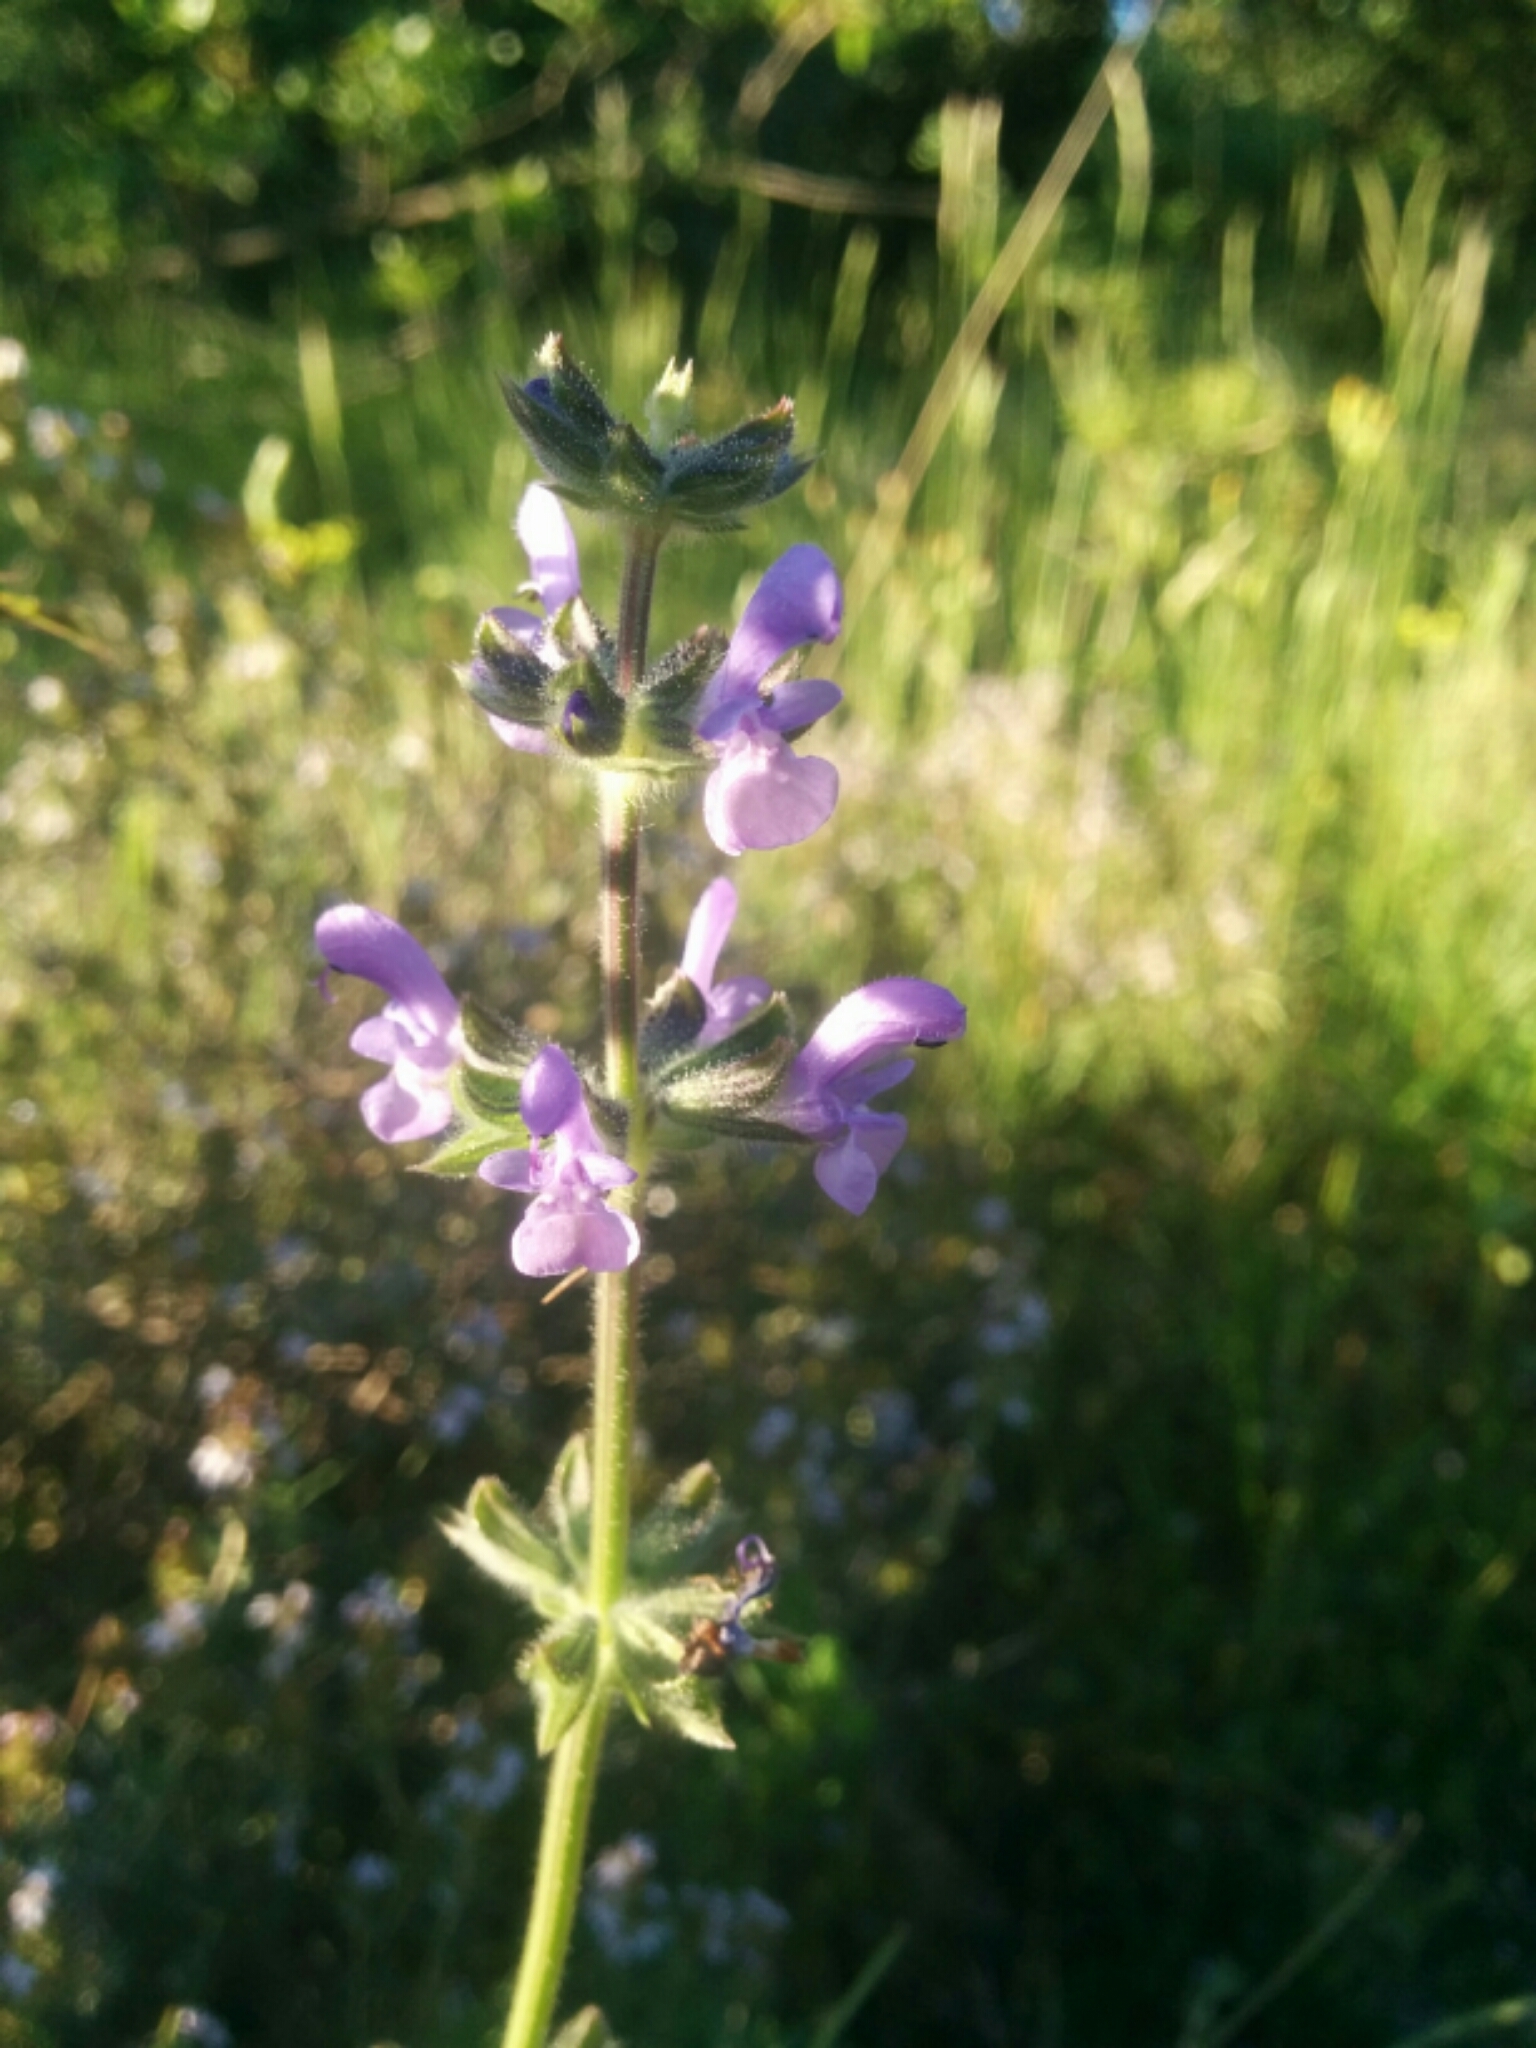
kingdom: Plantae
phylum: Tracheophyta
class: Magnoliopsida
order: Lamiales
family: Lamiaceae
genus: Salvia
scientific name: Salvia verbenaca
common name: Wild clary
